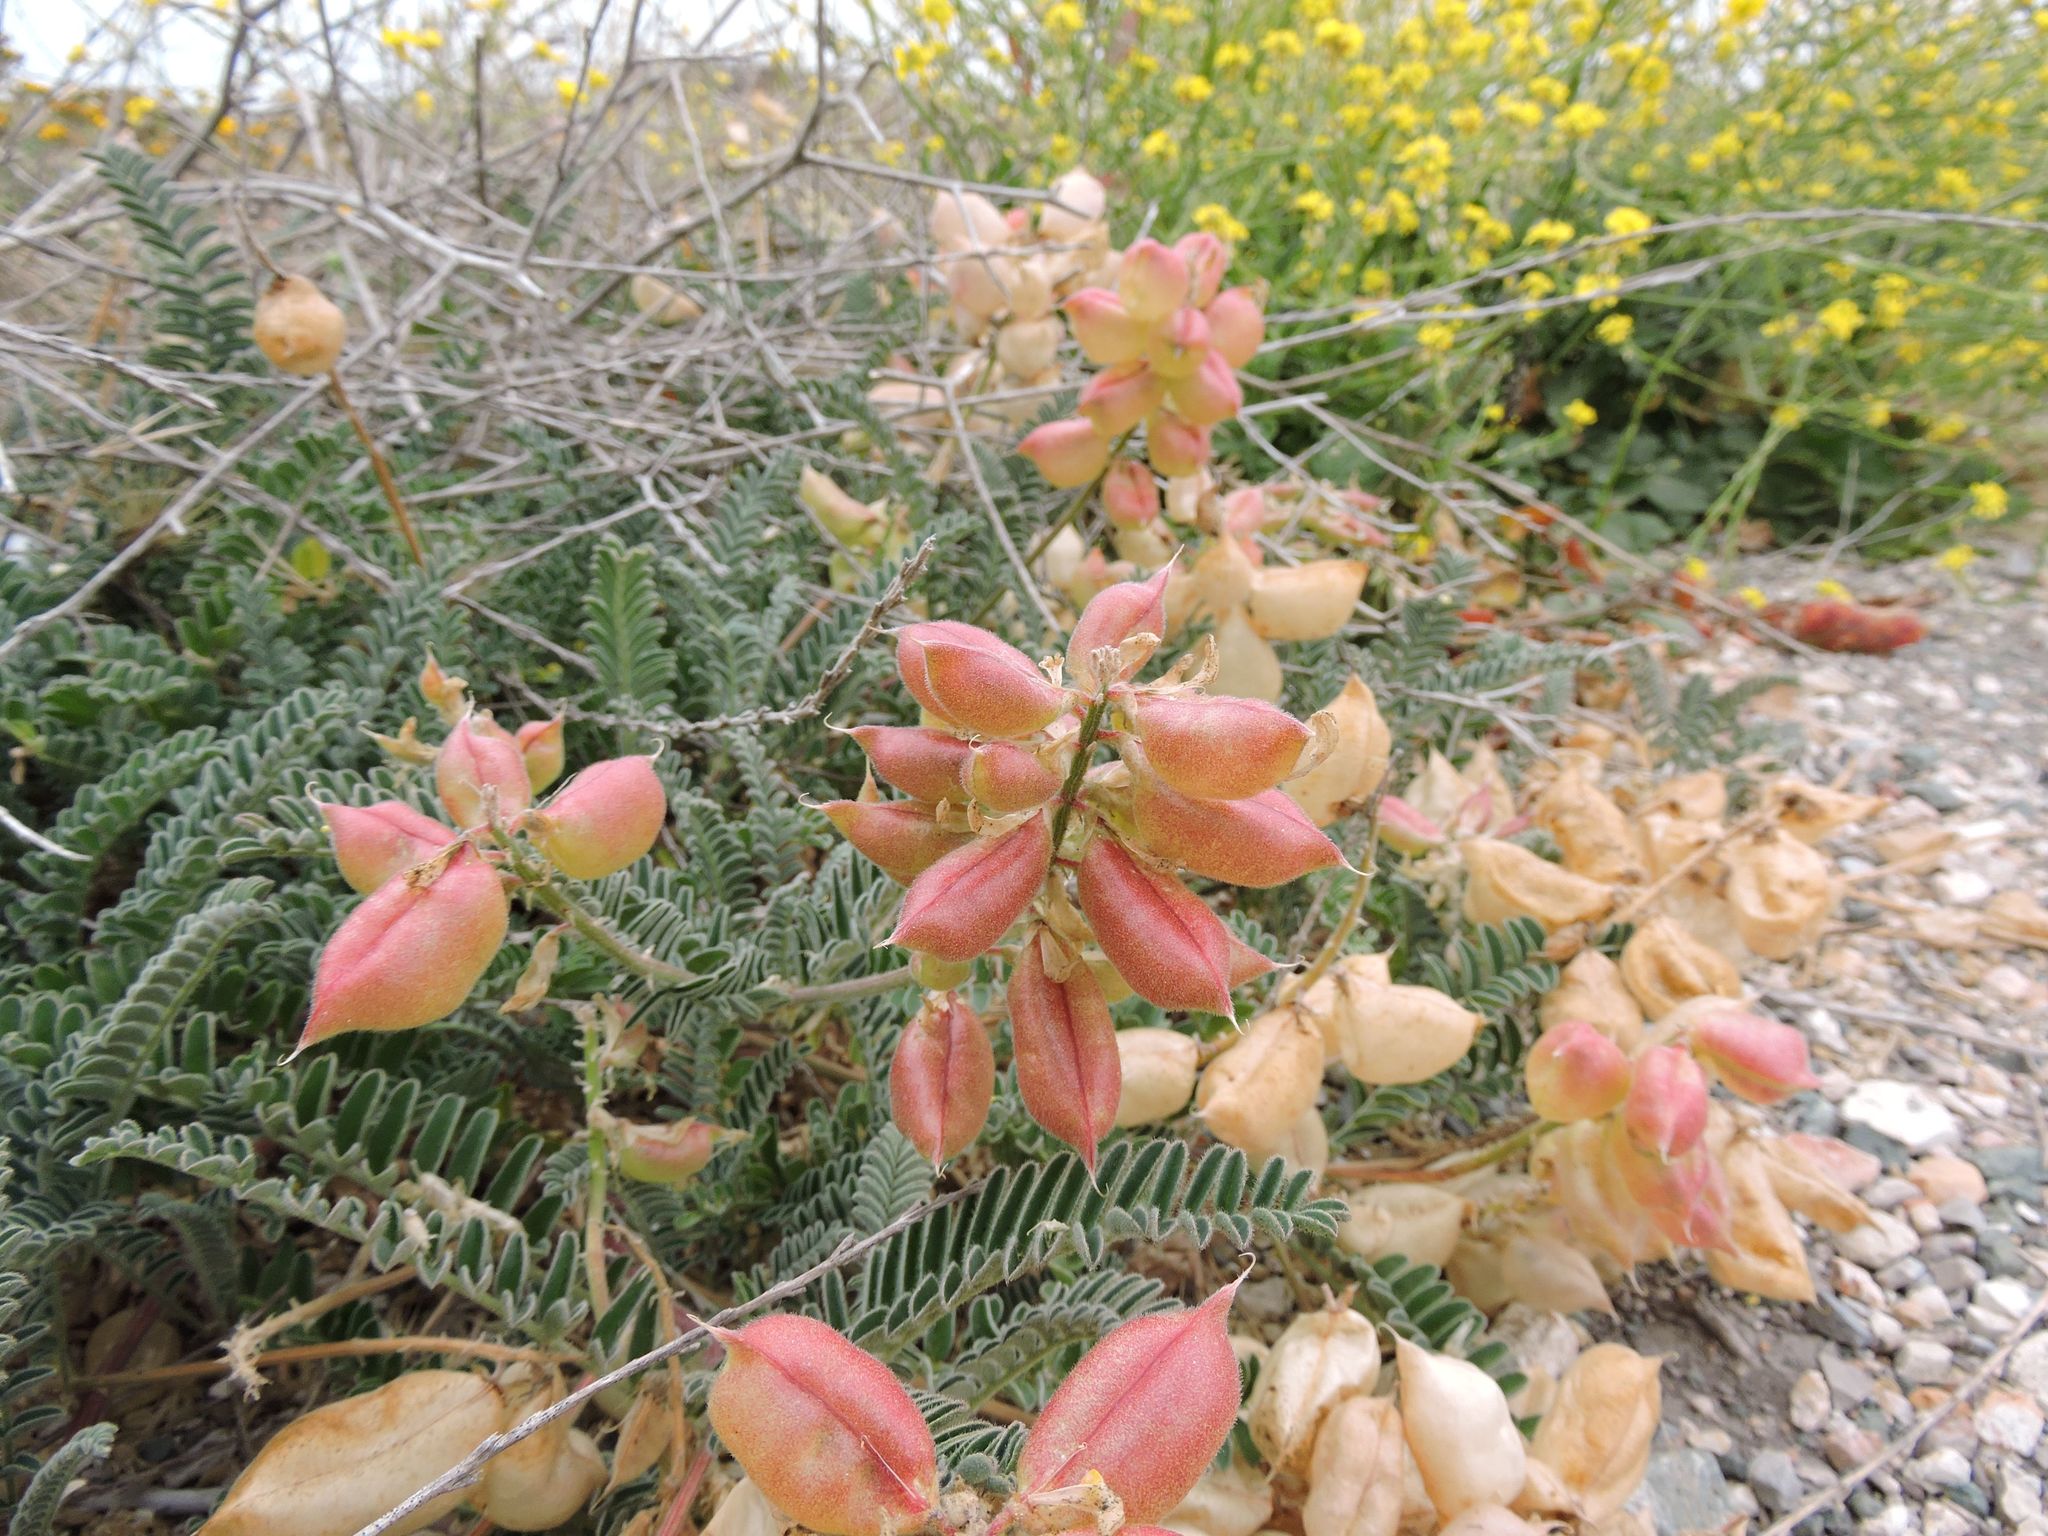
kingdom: Plantae
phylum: Tracheophyta
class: Magnoliopsida
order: Fabales
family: Fabaceae
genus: Astragalus
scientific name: Astragalus nuttallii
